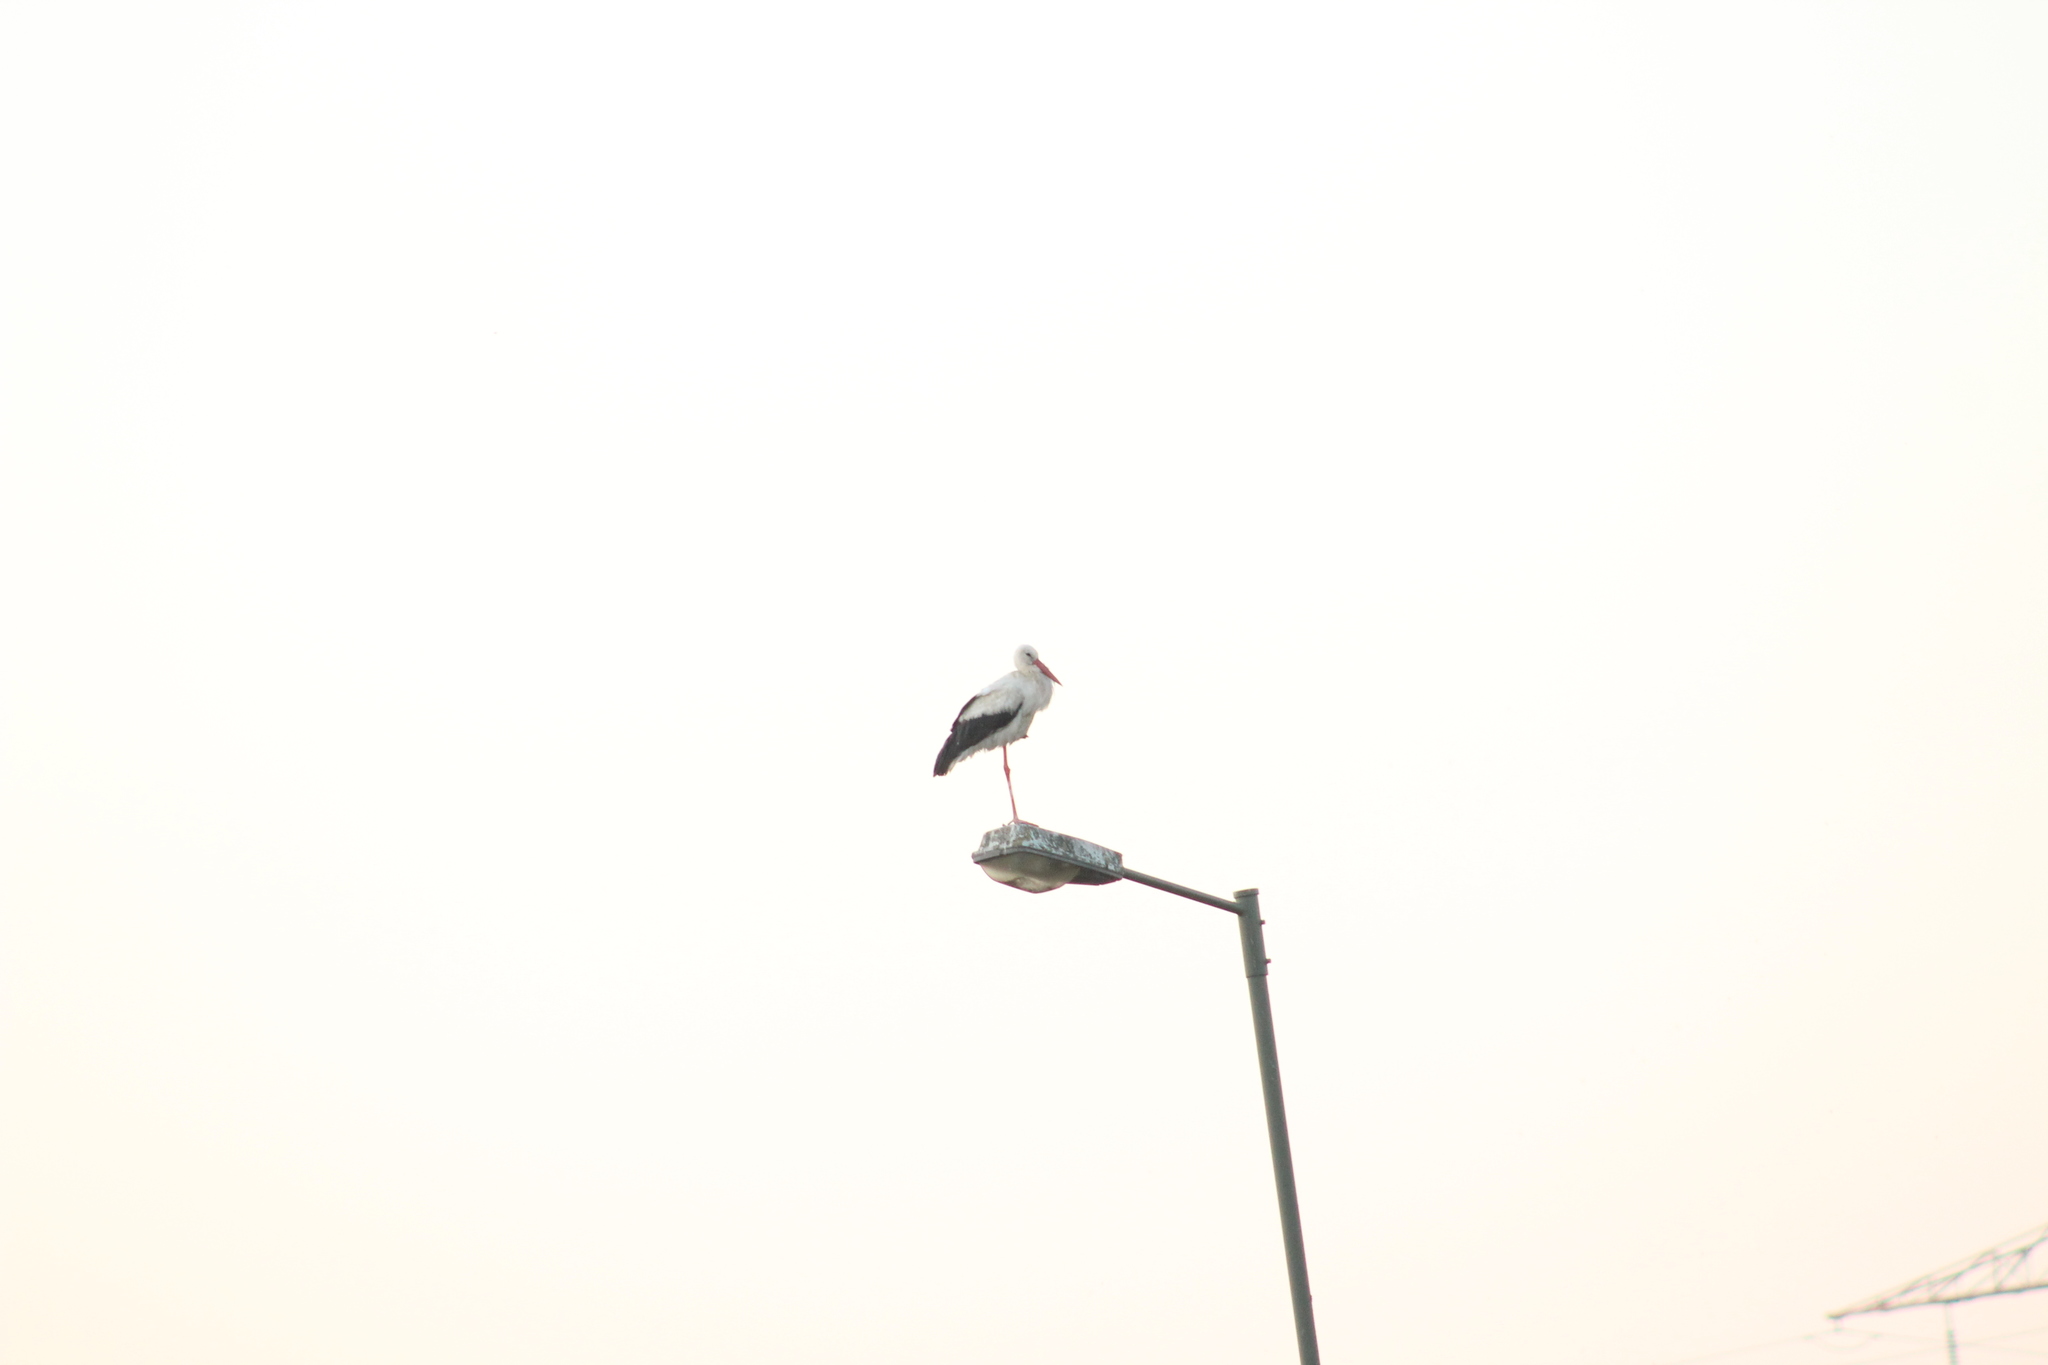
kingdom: Animalia
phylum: Chordata
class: Aves
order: Ciconiiformes
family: Ciconiidae
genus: Ciconia
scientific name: Ciconia ciconia
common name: White stork
